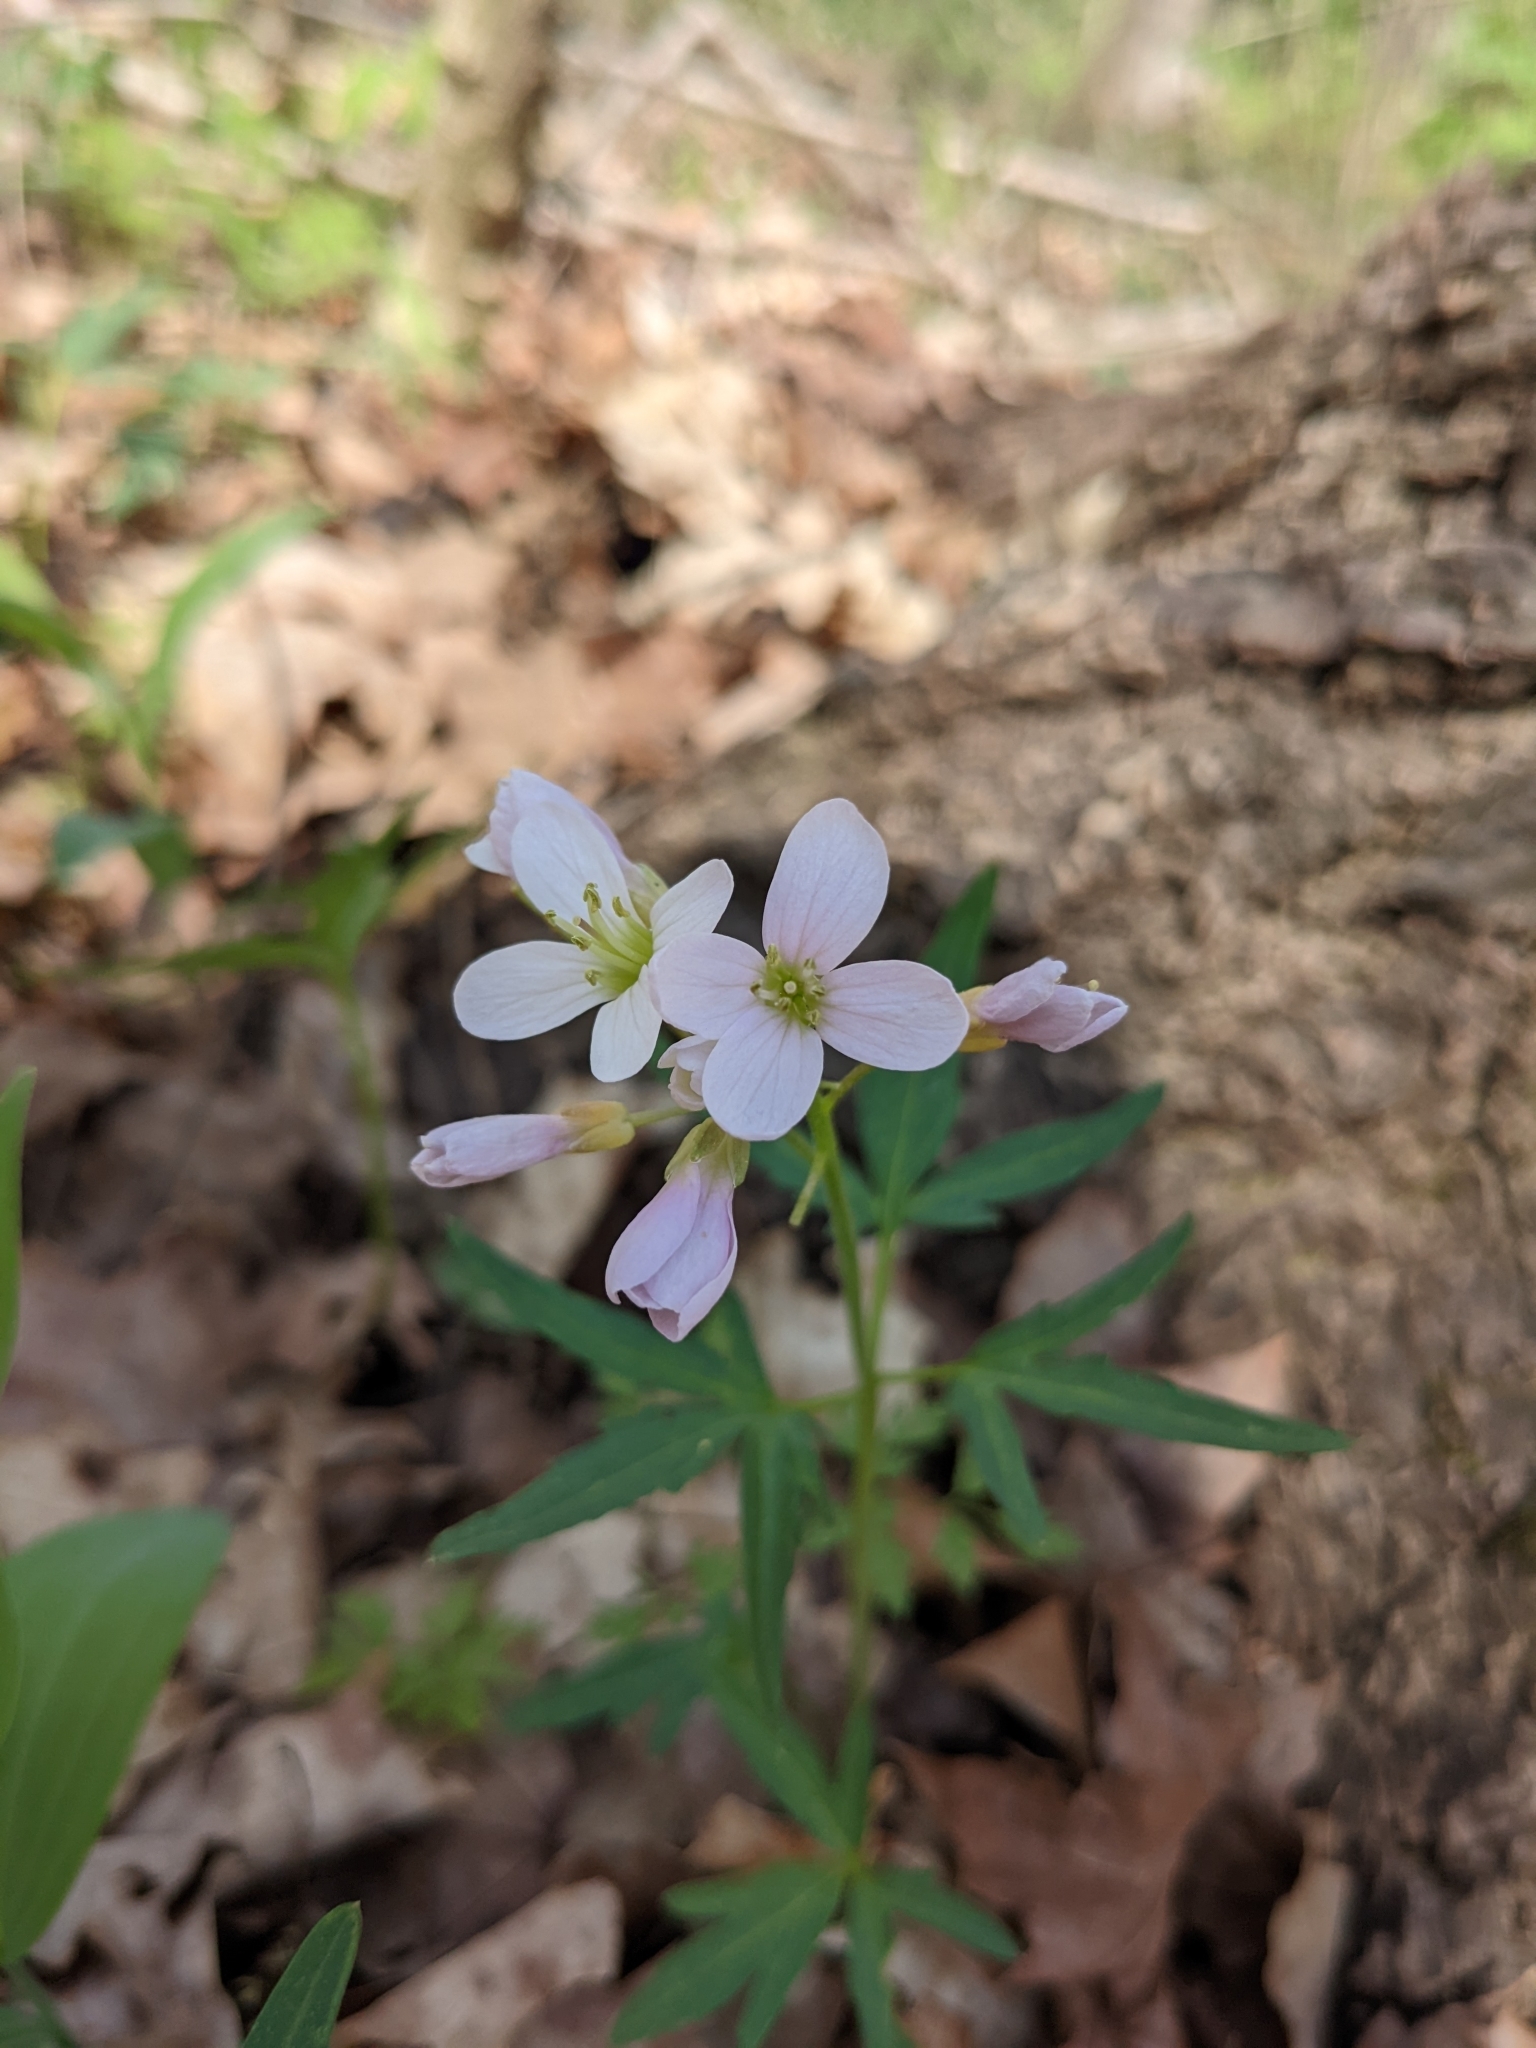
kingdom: Plantae
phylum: Tracheophyta
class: Magnoliopsida
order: Brassicales
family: Brassicaceae
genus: Cardamine
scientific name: Cardamine concatenata
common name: Cut-leaf toothcup
